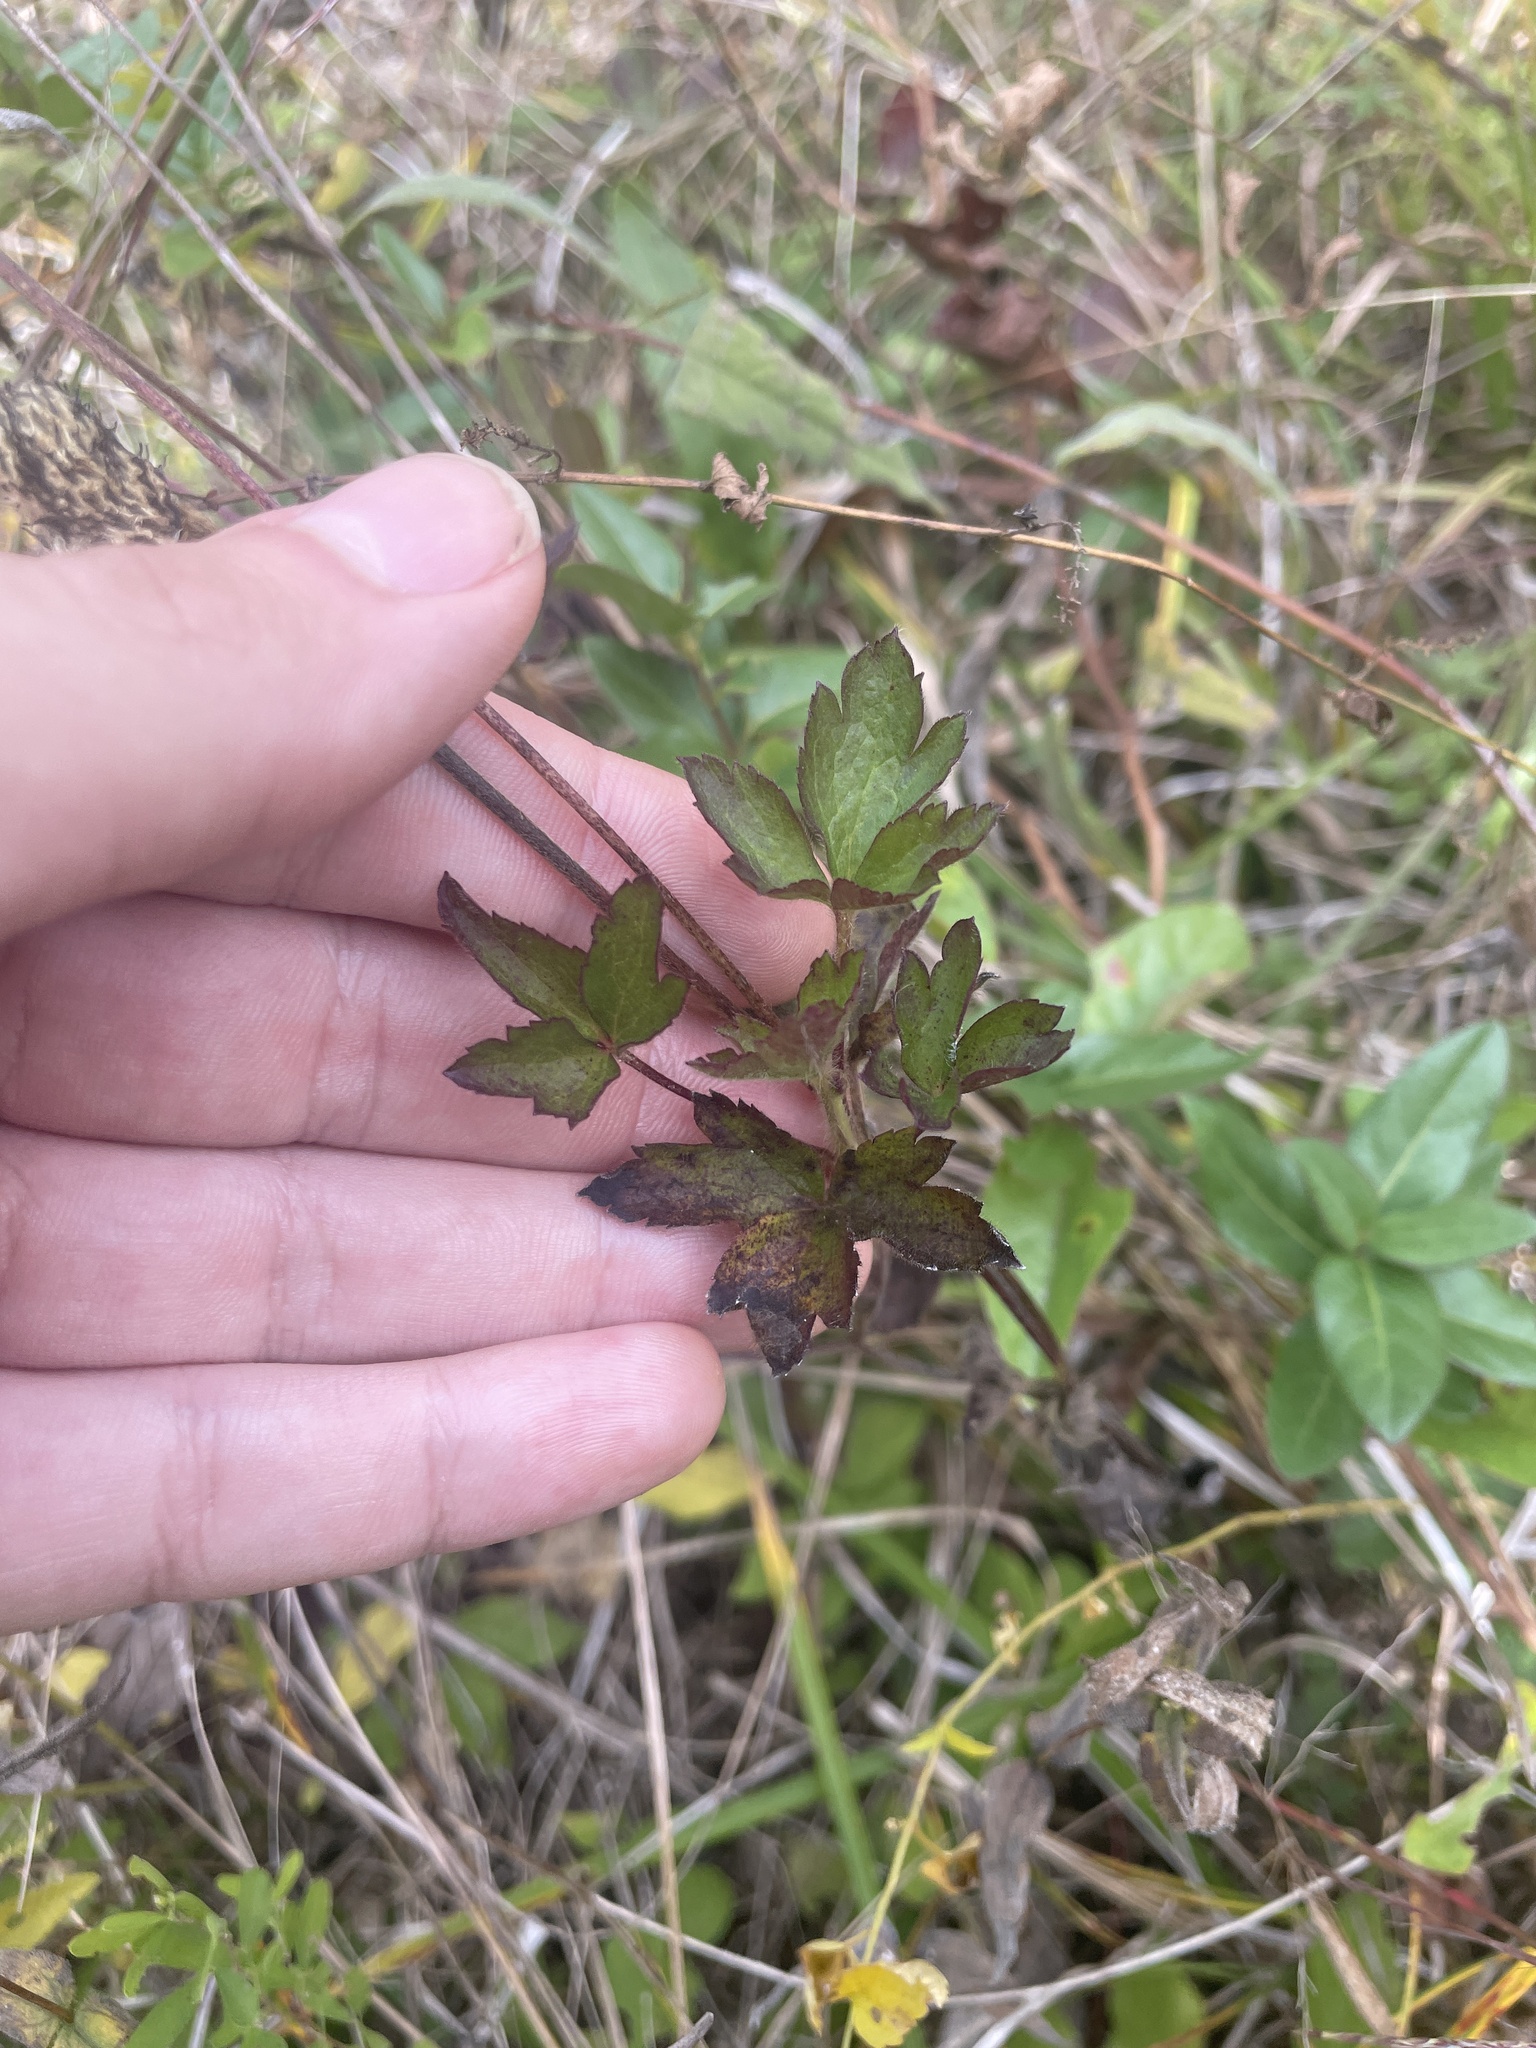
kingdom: Plantae
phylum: Tracheophyta
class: Magnoliopsida
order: Ranunculales
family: Ranunculaceae
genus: Anemone
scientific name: Anemone virginiana
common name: Tall anemone
